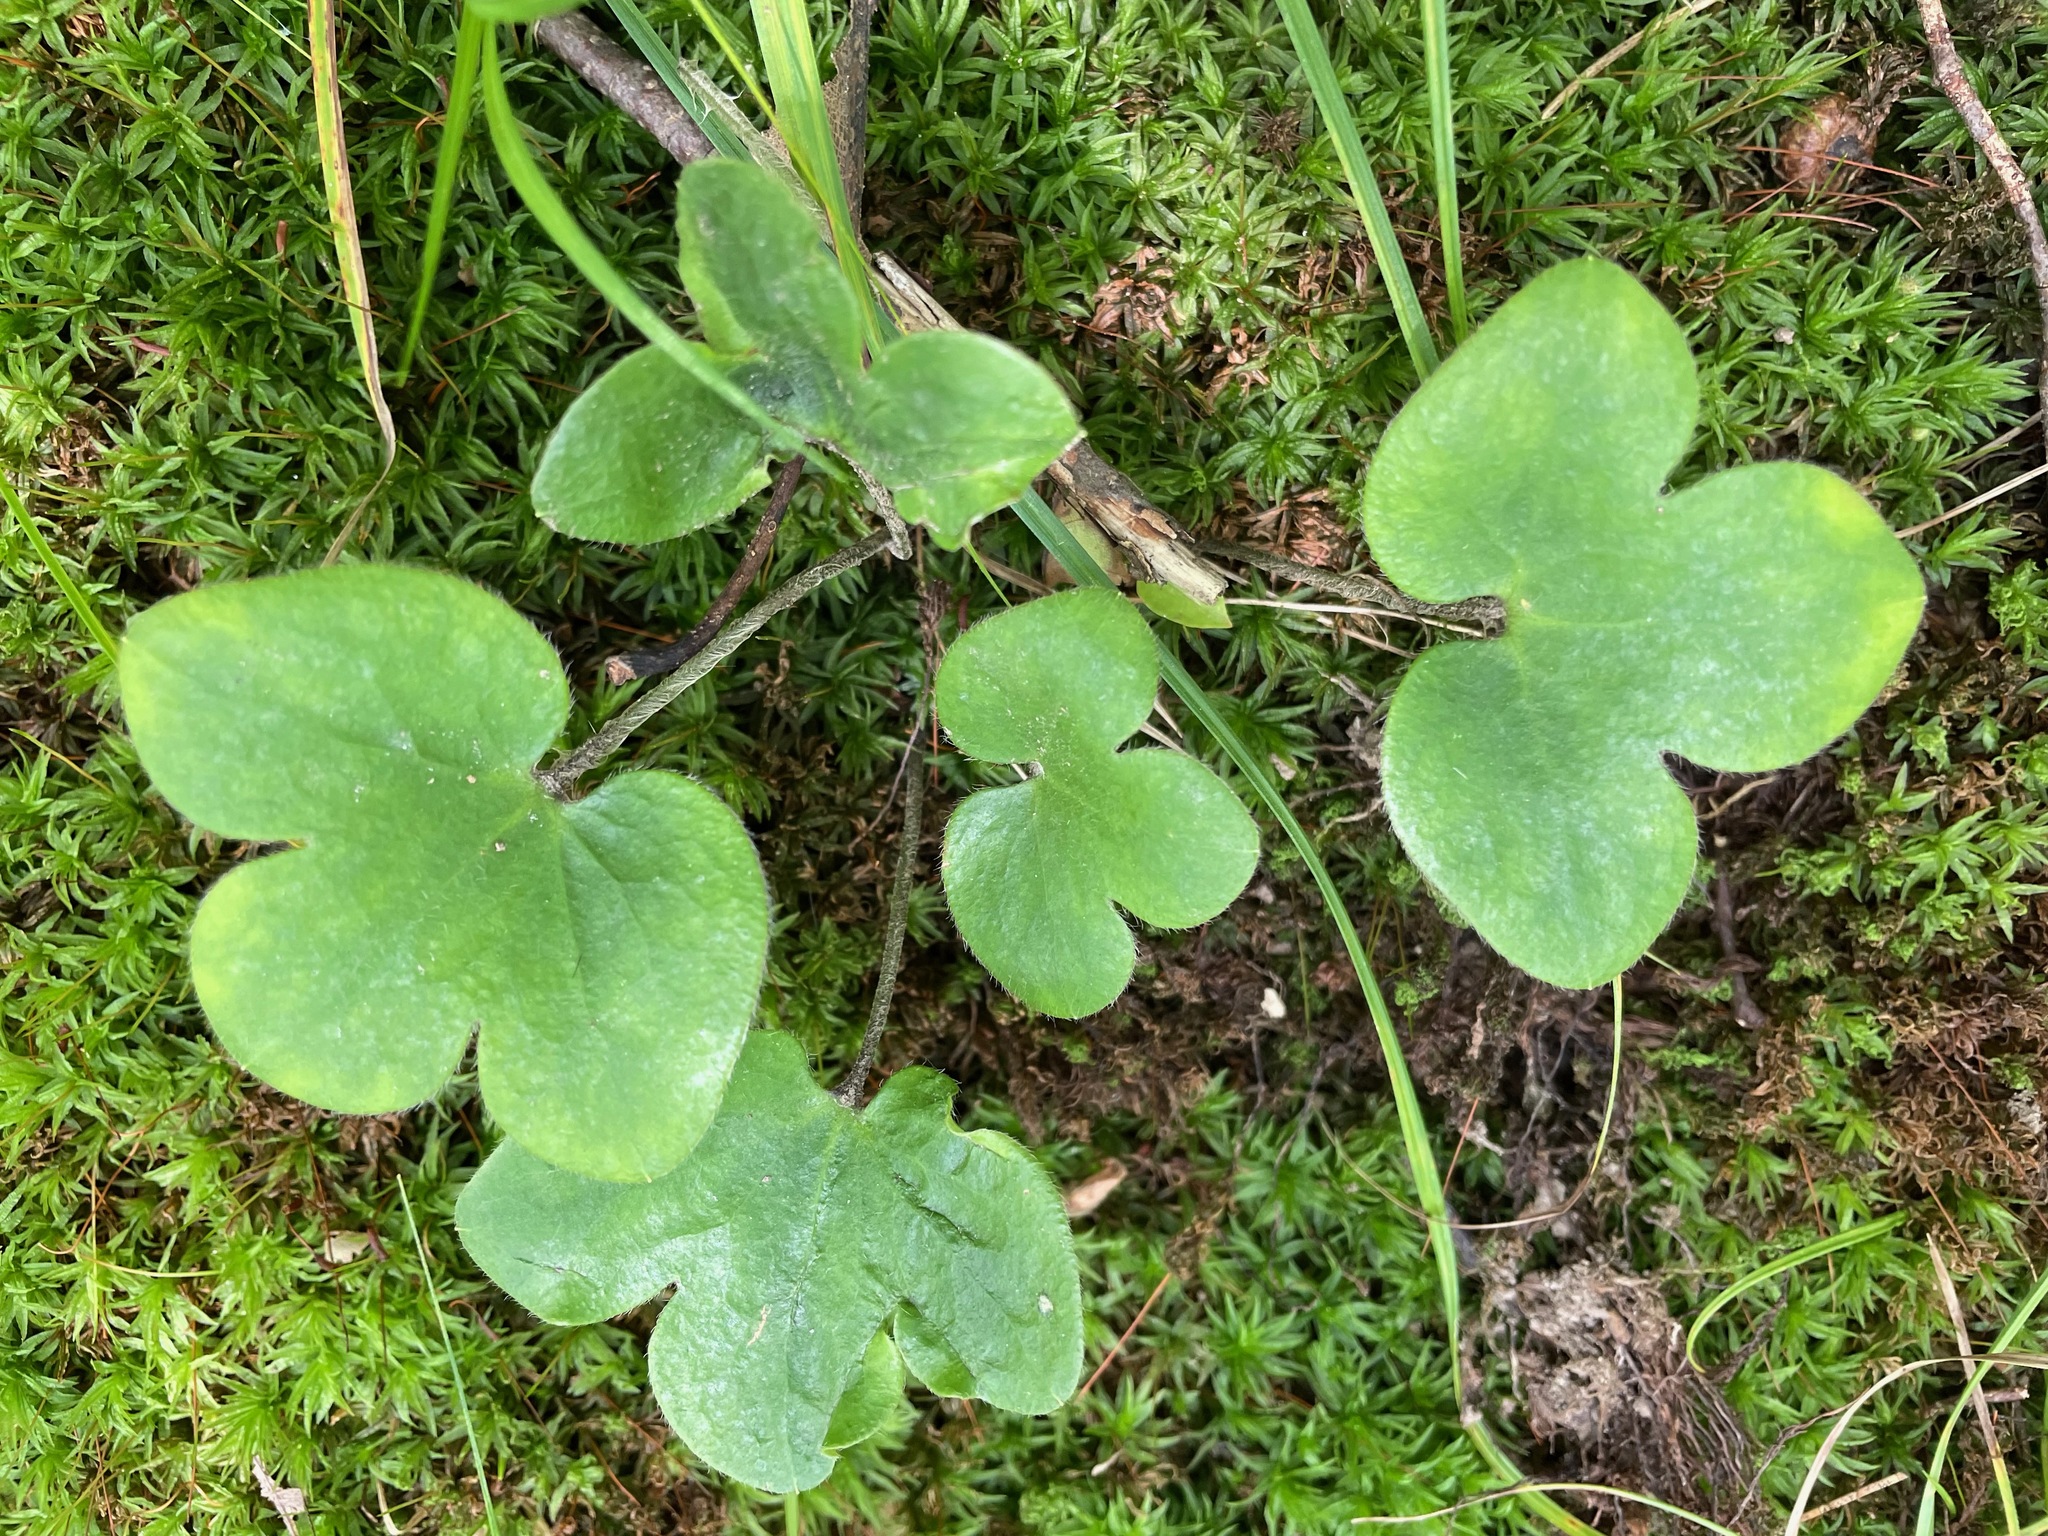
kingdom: Plantae
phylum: Tracheophyta
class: Magnoliopsida
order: Ranunculales
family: Ranunculaceae
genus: Hepatica
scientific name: Hepatica americana
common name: American hepatica
